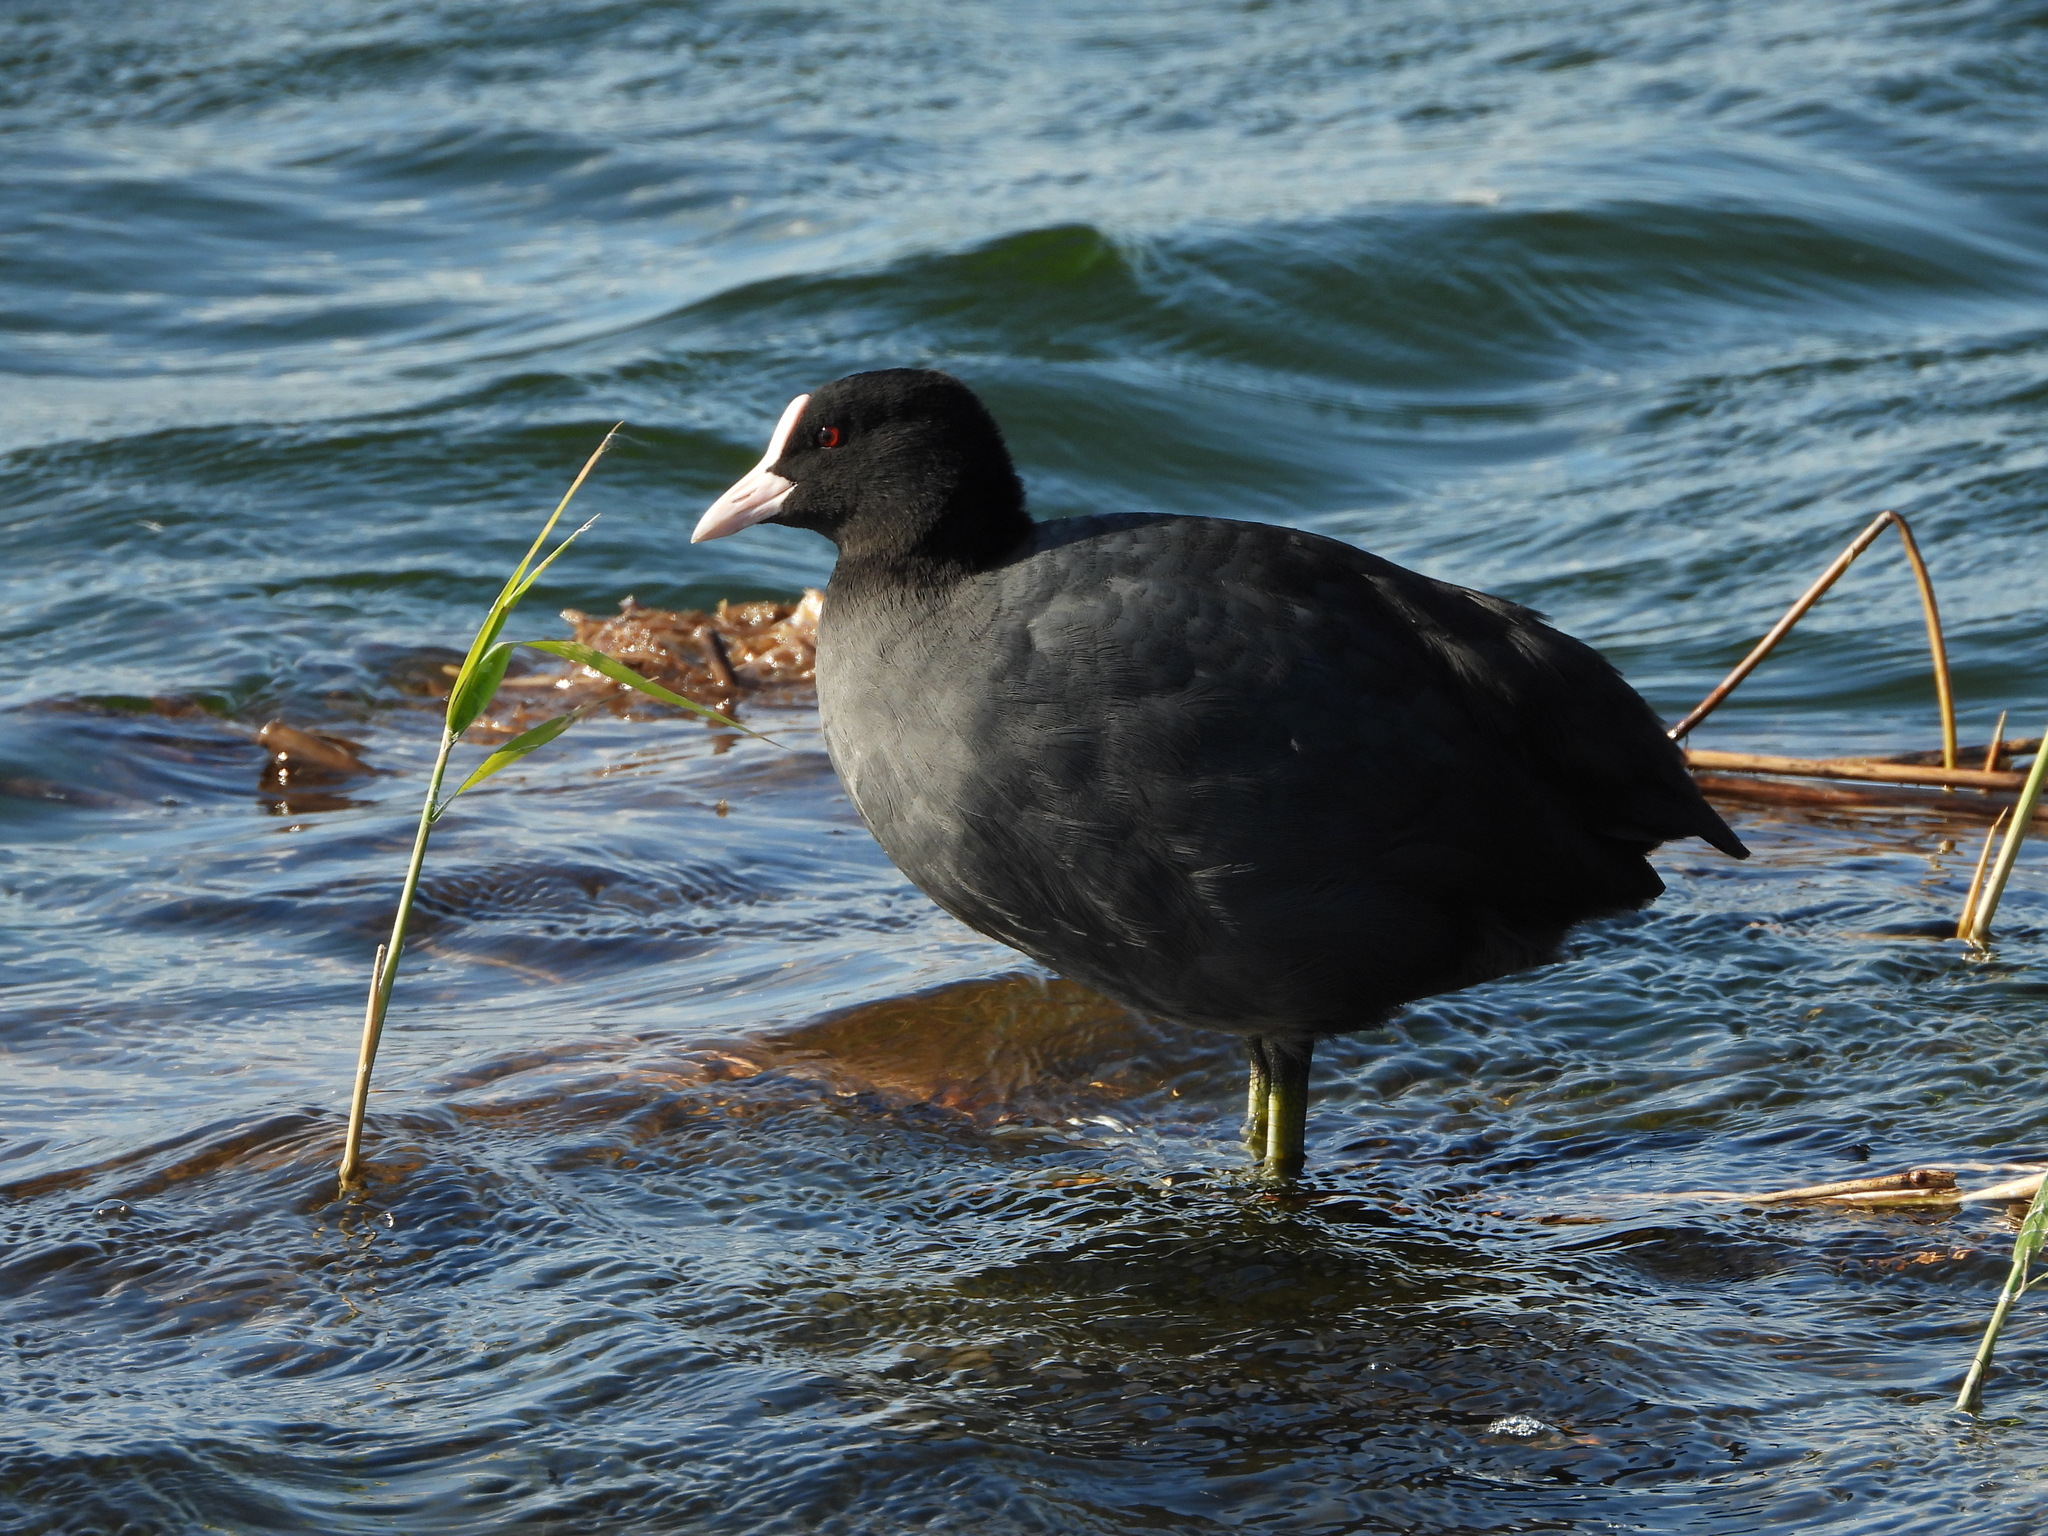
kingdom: Animalia
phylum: Chordata
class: Aves
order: Gruiformes
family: Rallidae
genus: Fulica
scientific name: Fulica atra
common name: Eurasian coot
